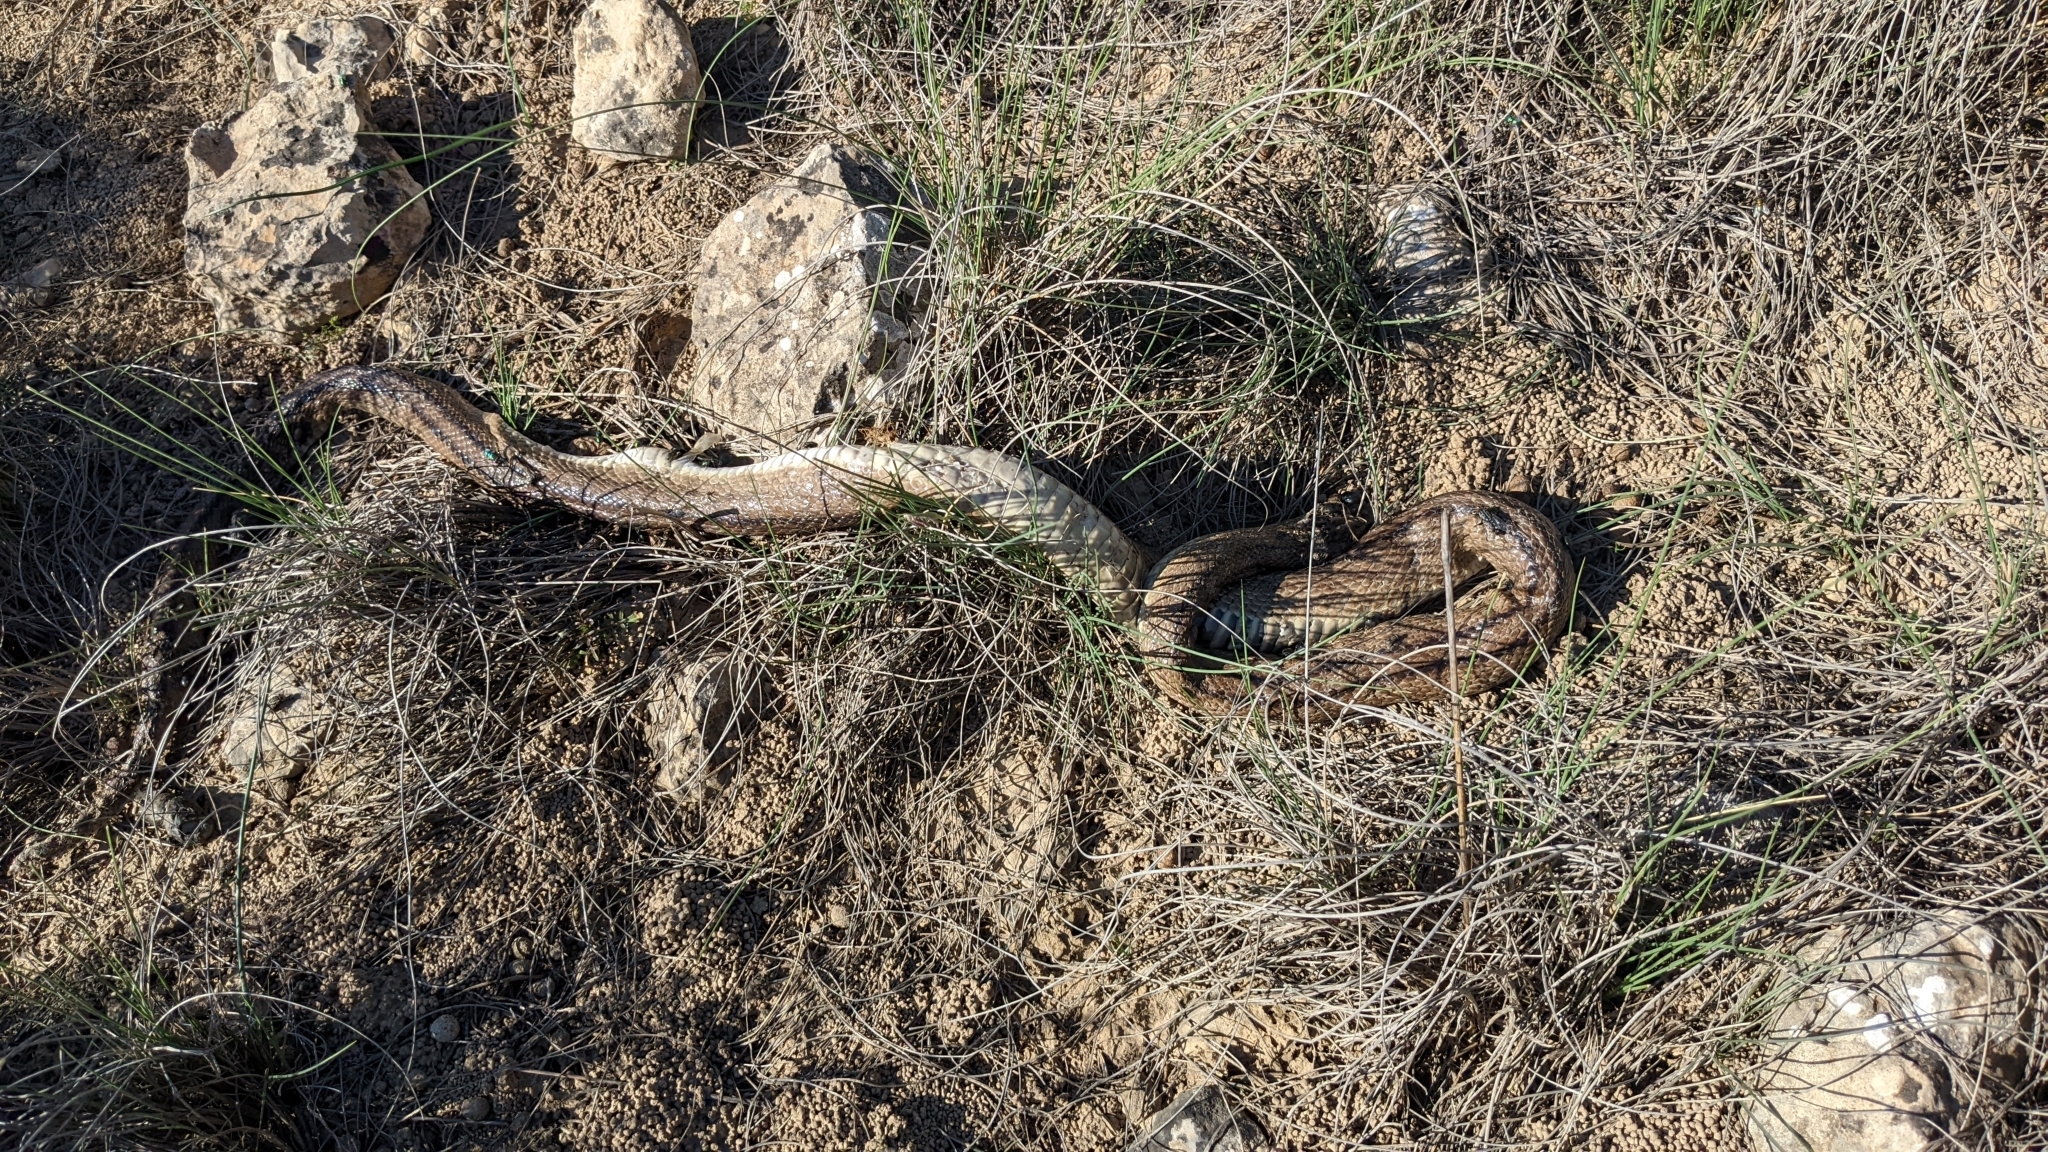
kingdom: Animalia
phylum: Chordata
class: Squamata
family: Colubridae
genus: Zamenis
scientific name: Zamenis scalaris
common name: Ladder snakes
